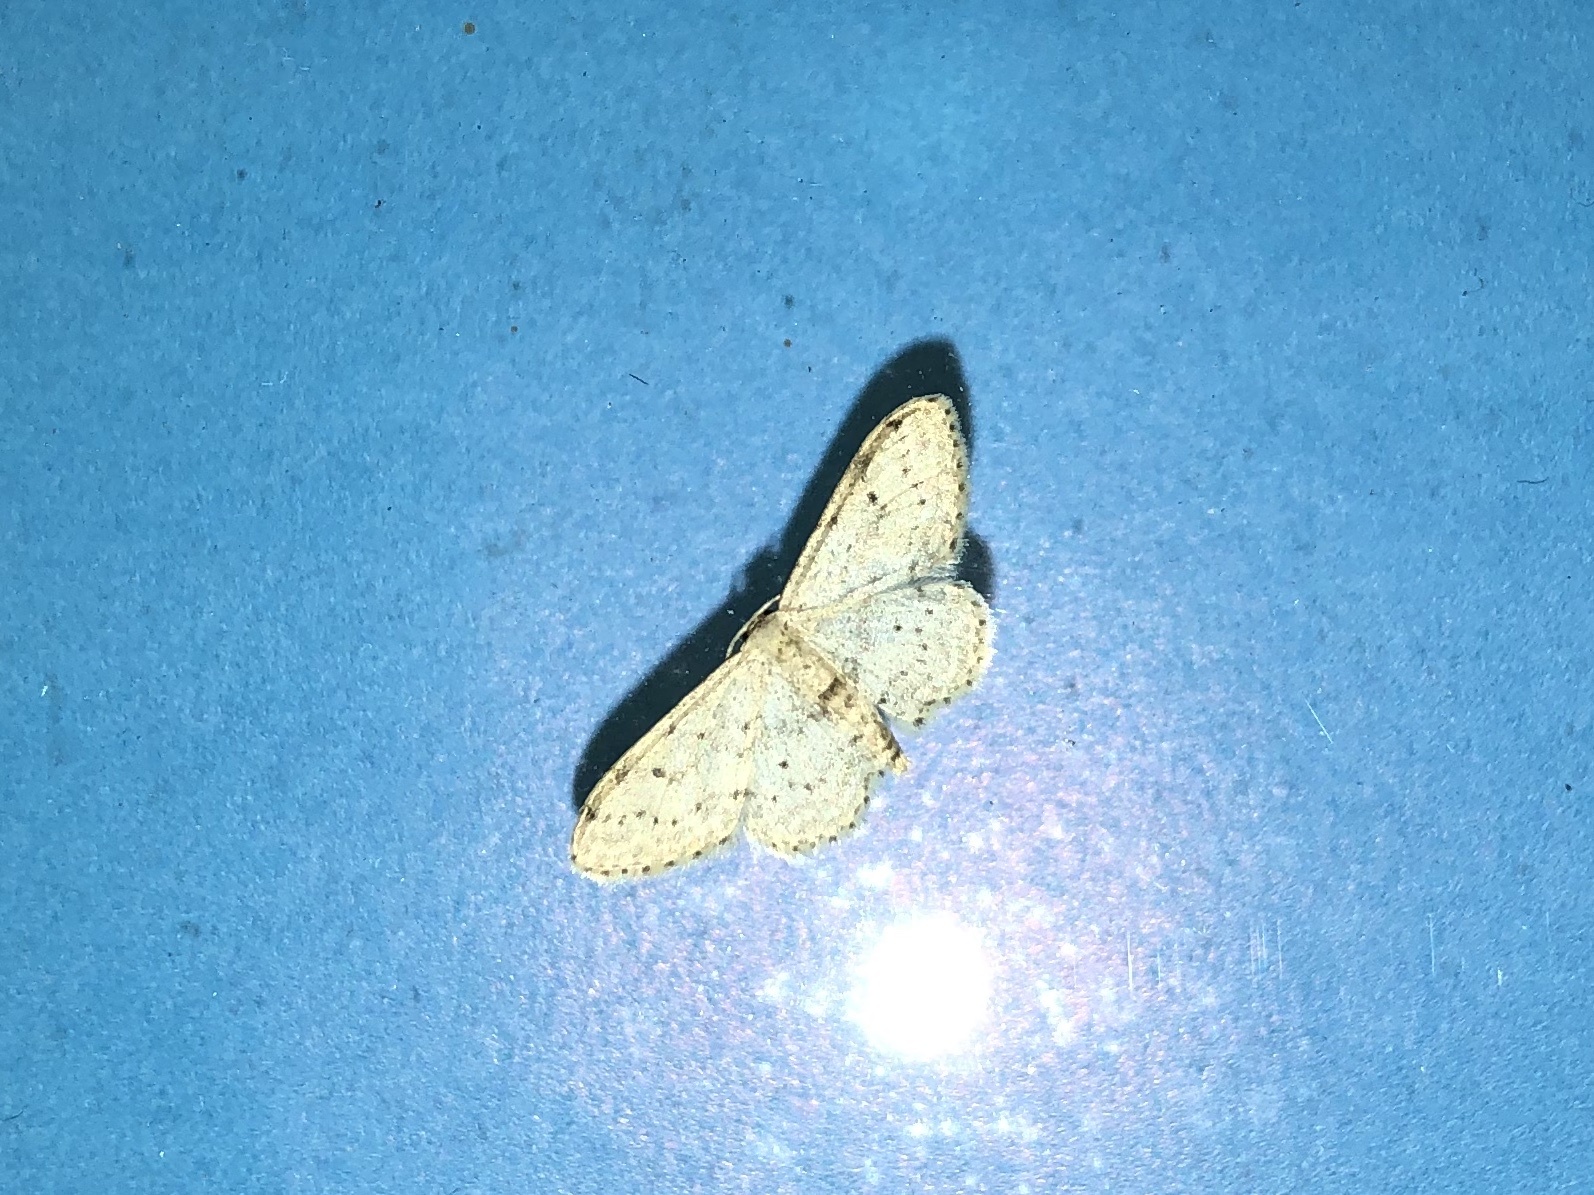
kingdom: Animalia
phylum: Arthropoda
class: Insecta
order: Lepidoptera
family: Geometridae
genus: Idaea
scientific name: Idaea seriata
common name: Small dusty wave
